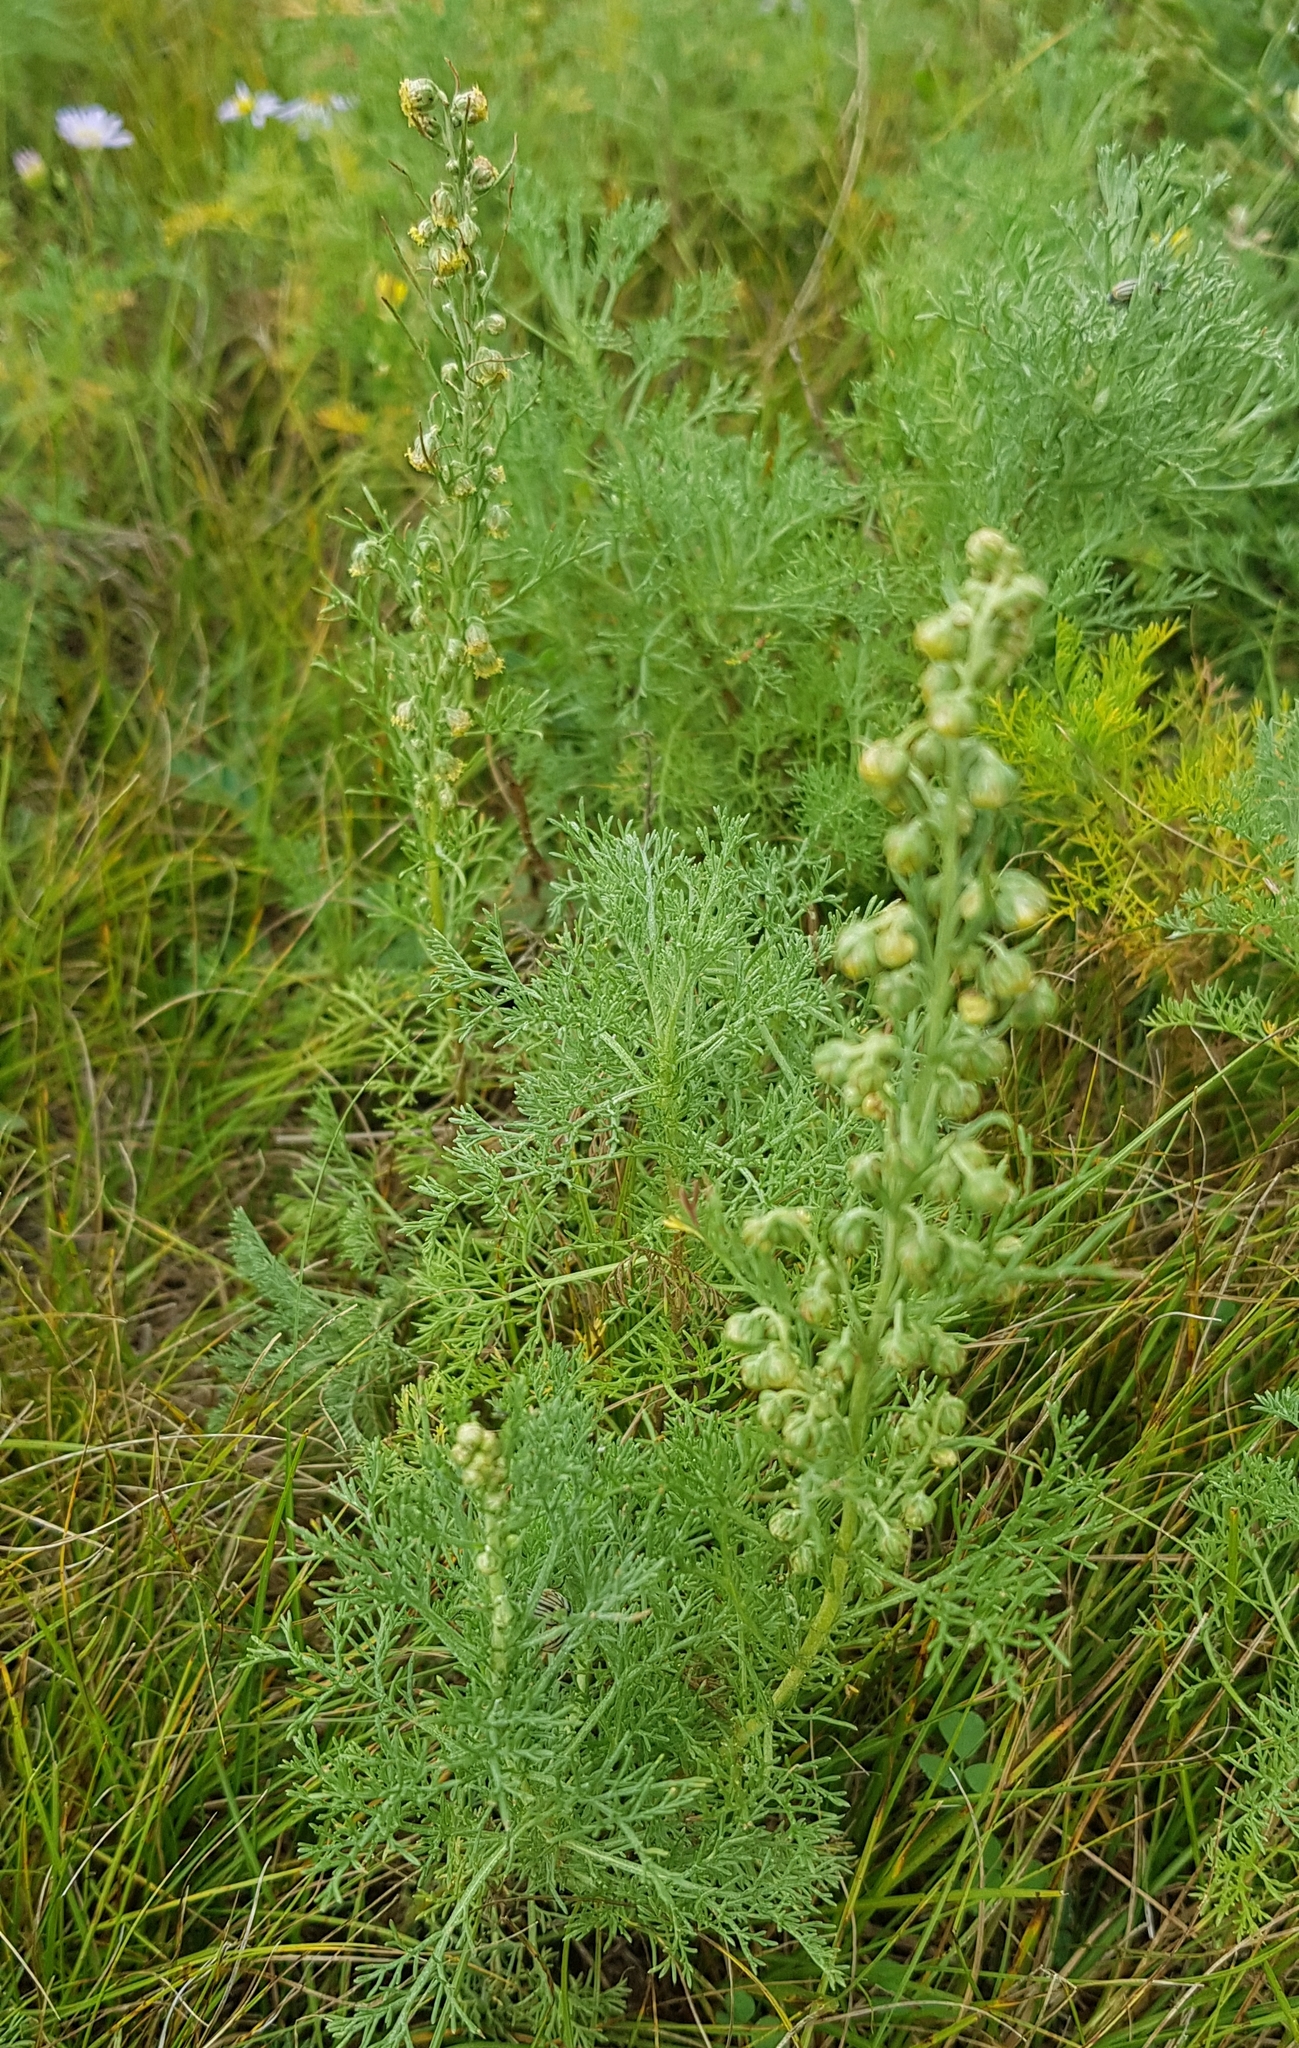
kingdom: Plantae
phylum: Tracheophyta
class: Magnoliopsida
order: Asterales
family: Asteraceae
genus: Artemisia
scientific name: Artemisia gmelinii
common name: Gmelin's wormwood
